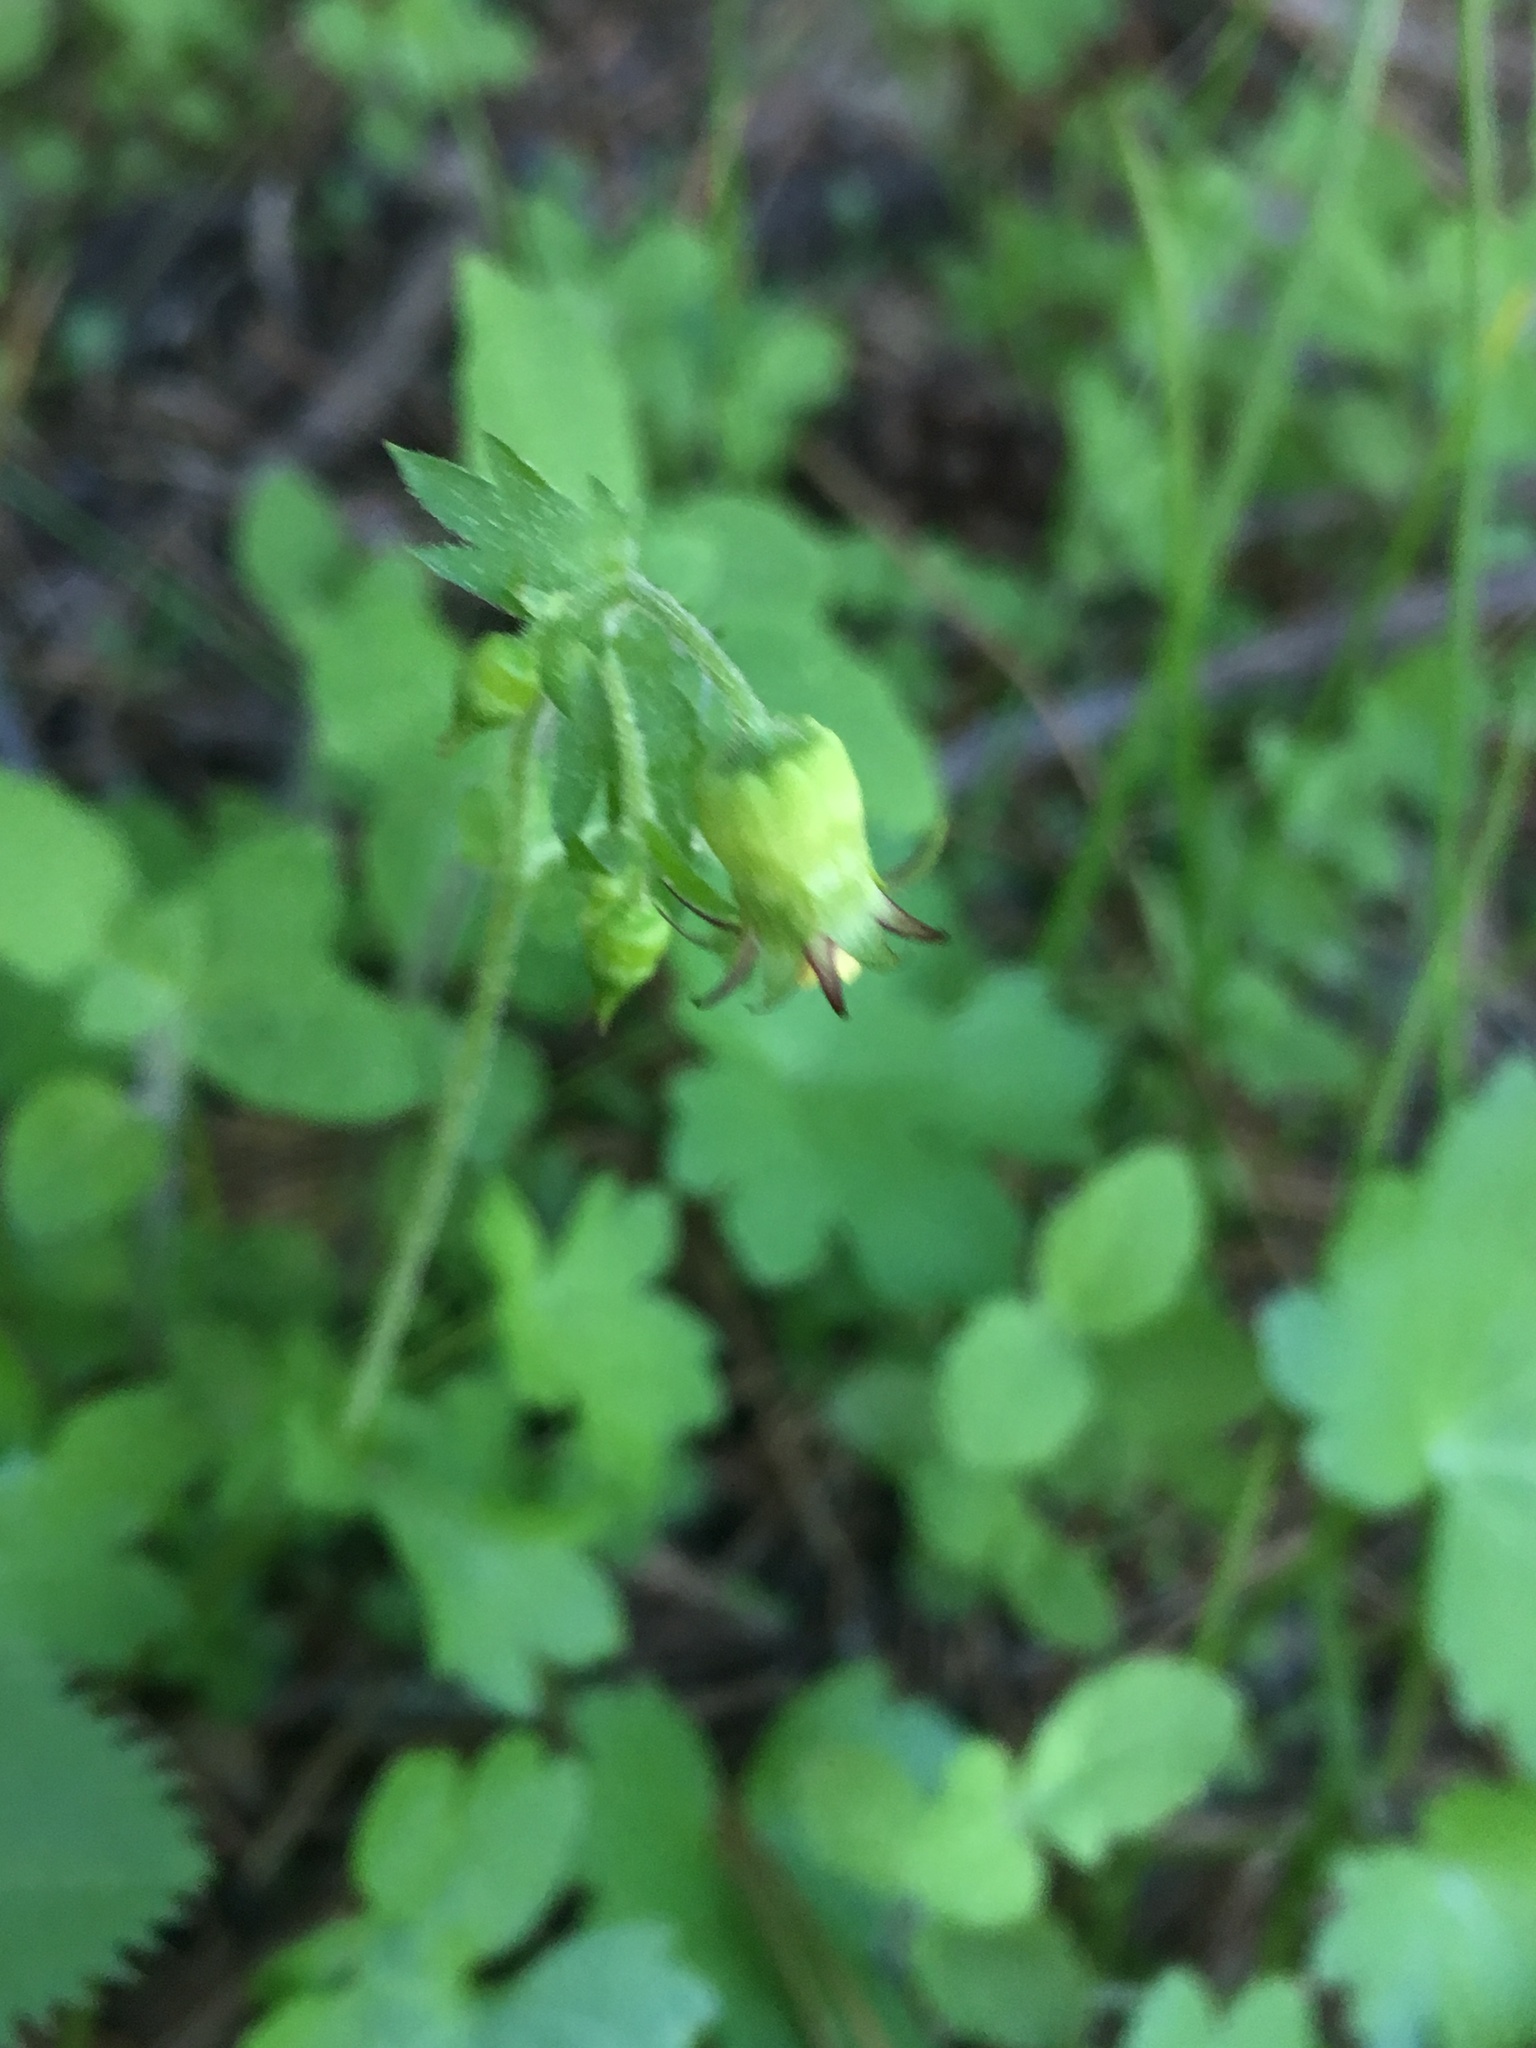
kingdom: Plantae
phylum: Tracheophyta
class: Magnoliopsida
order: Saxifragales
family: Saxifragaceae
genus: Bolandra
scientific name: Bolandra californica
